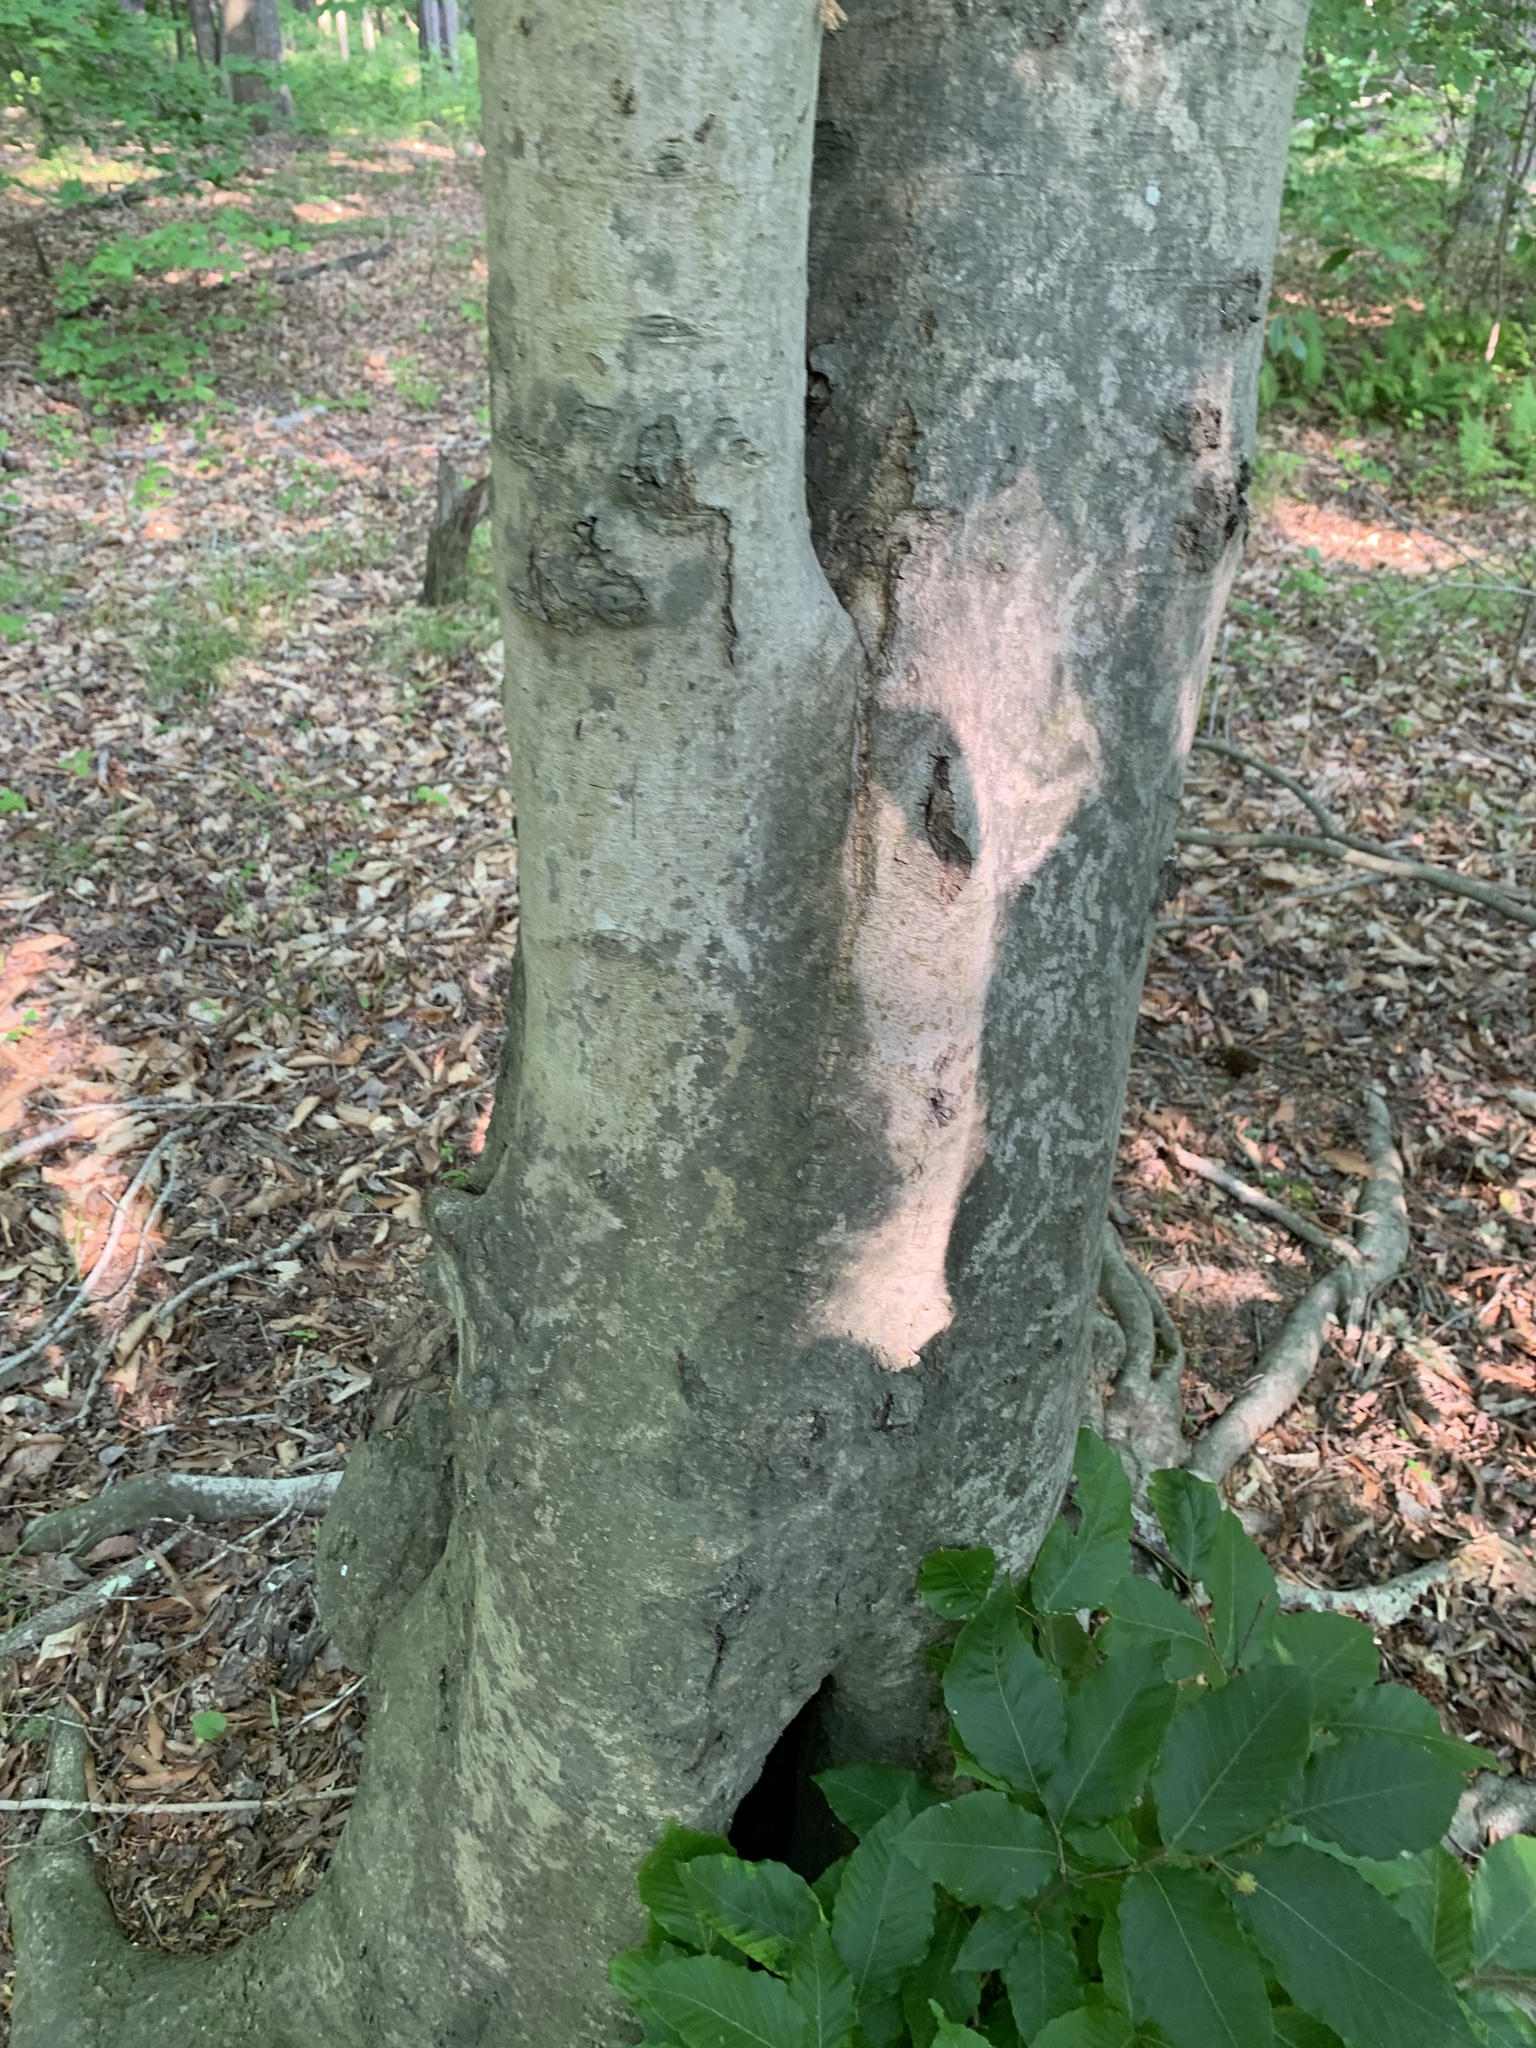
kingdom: Plantae
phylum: Tracheophyta
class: Magnoliopsida
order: Fagales
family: Fagaceae
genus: Fagus
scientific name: Fagus grandifolia
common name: American beech
